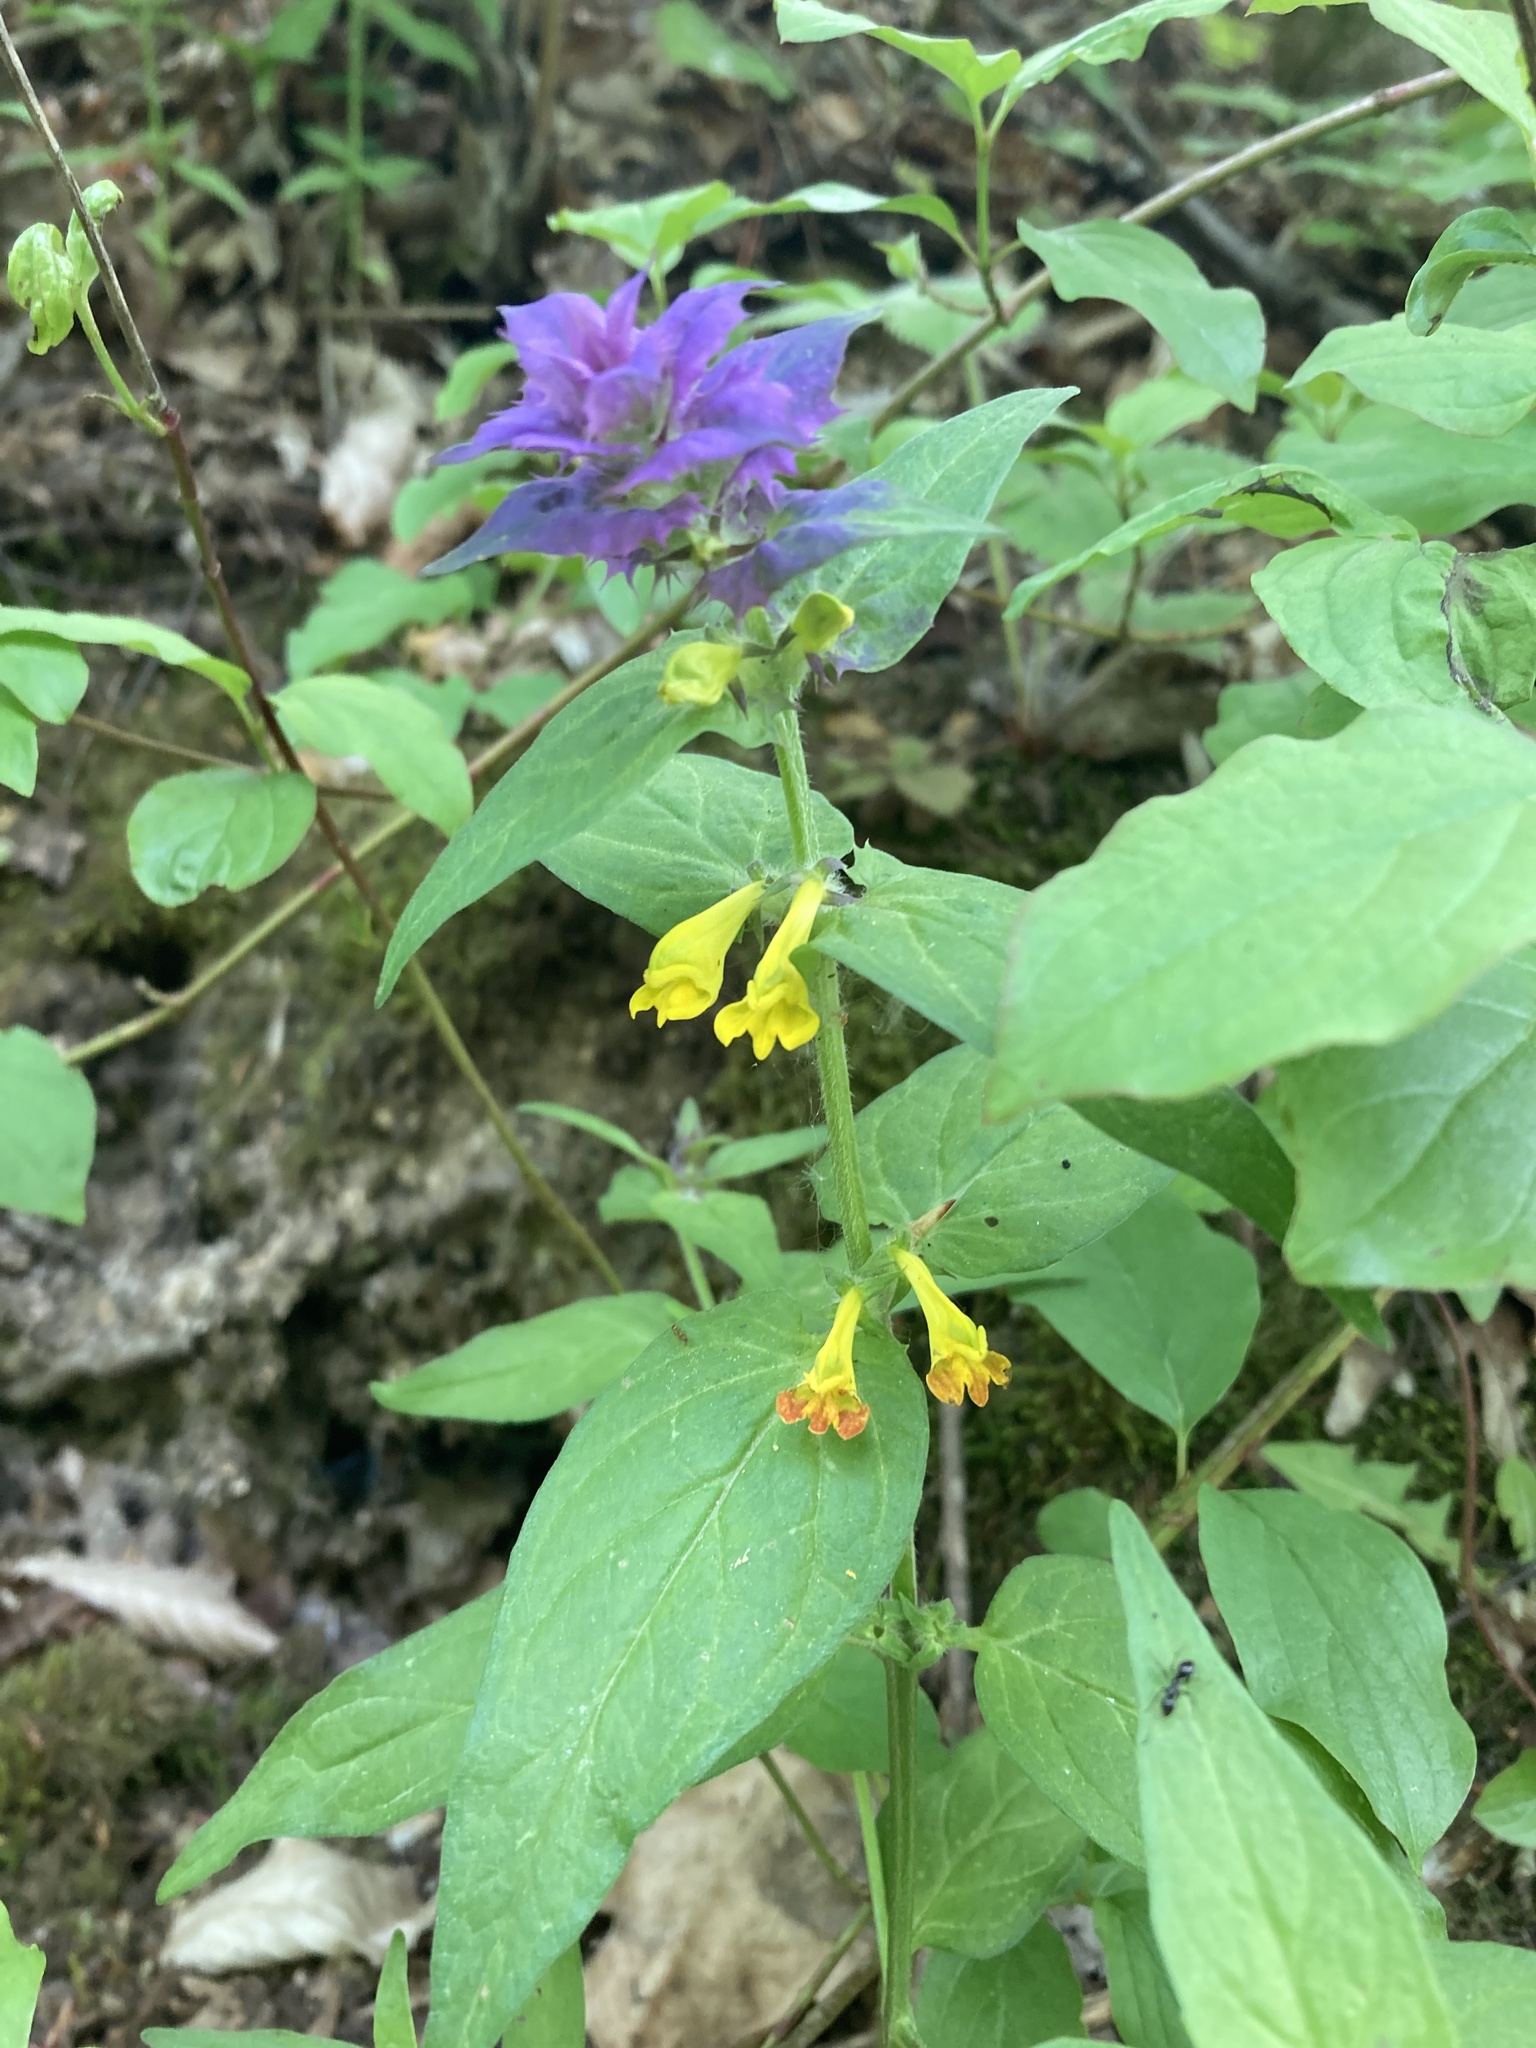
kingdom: Plantae
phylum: Tracheophyta
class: Magnoliopsida
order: Lamiales
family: Orobanchaceae
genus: Melampyrum
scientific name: Melampyrum nemorosum
